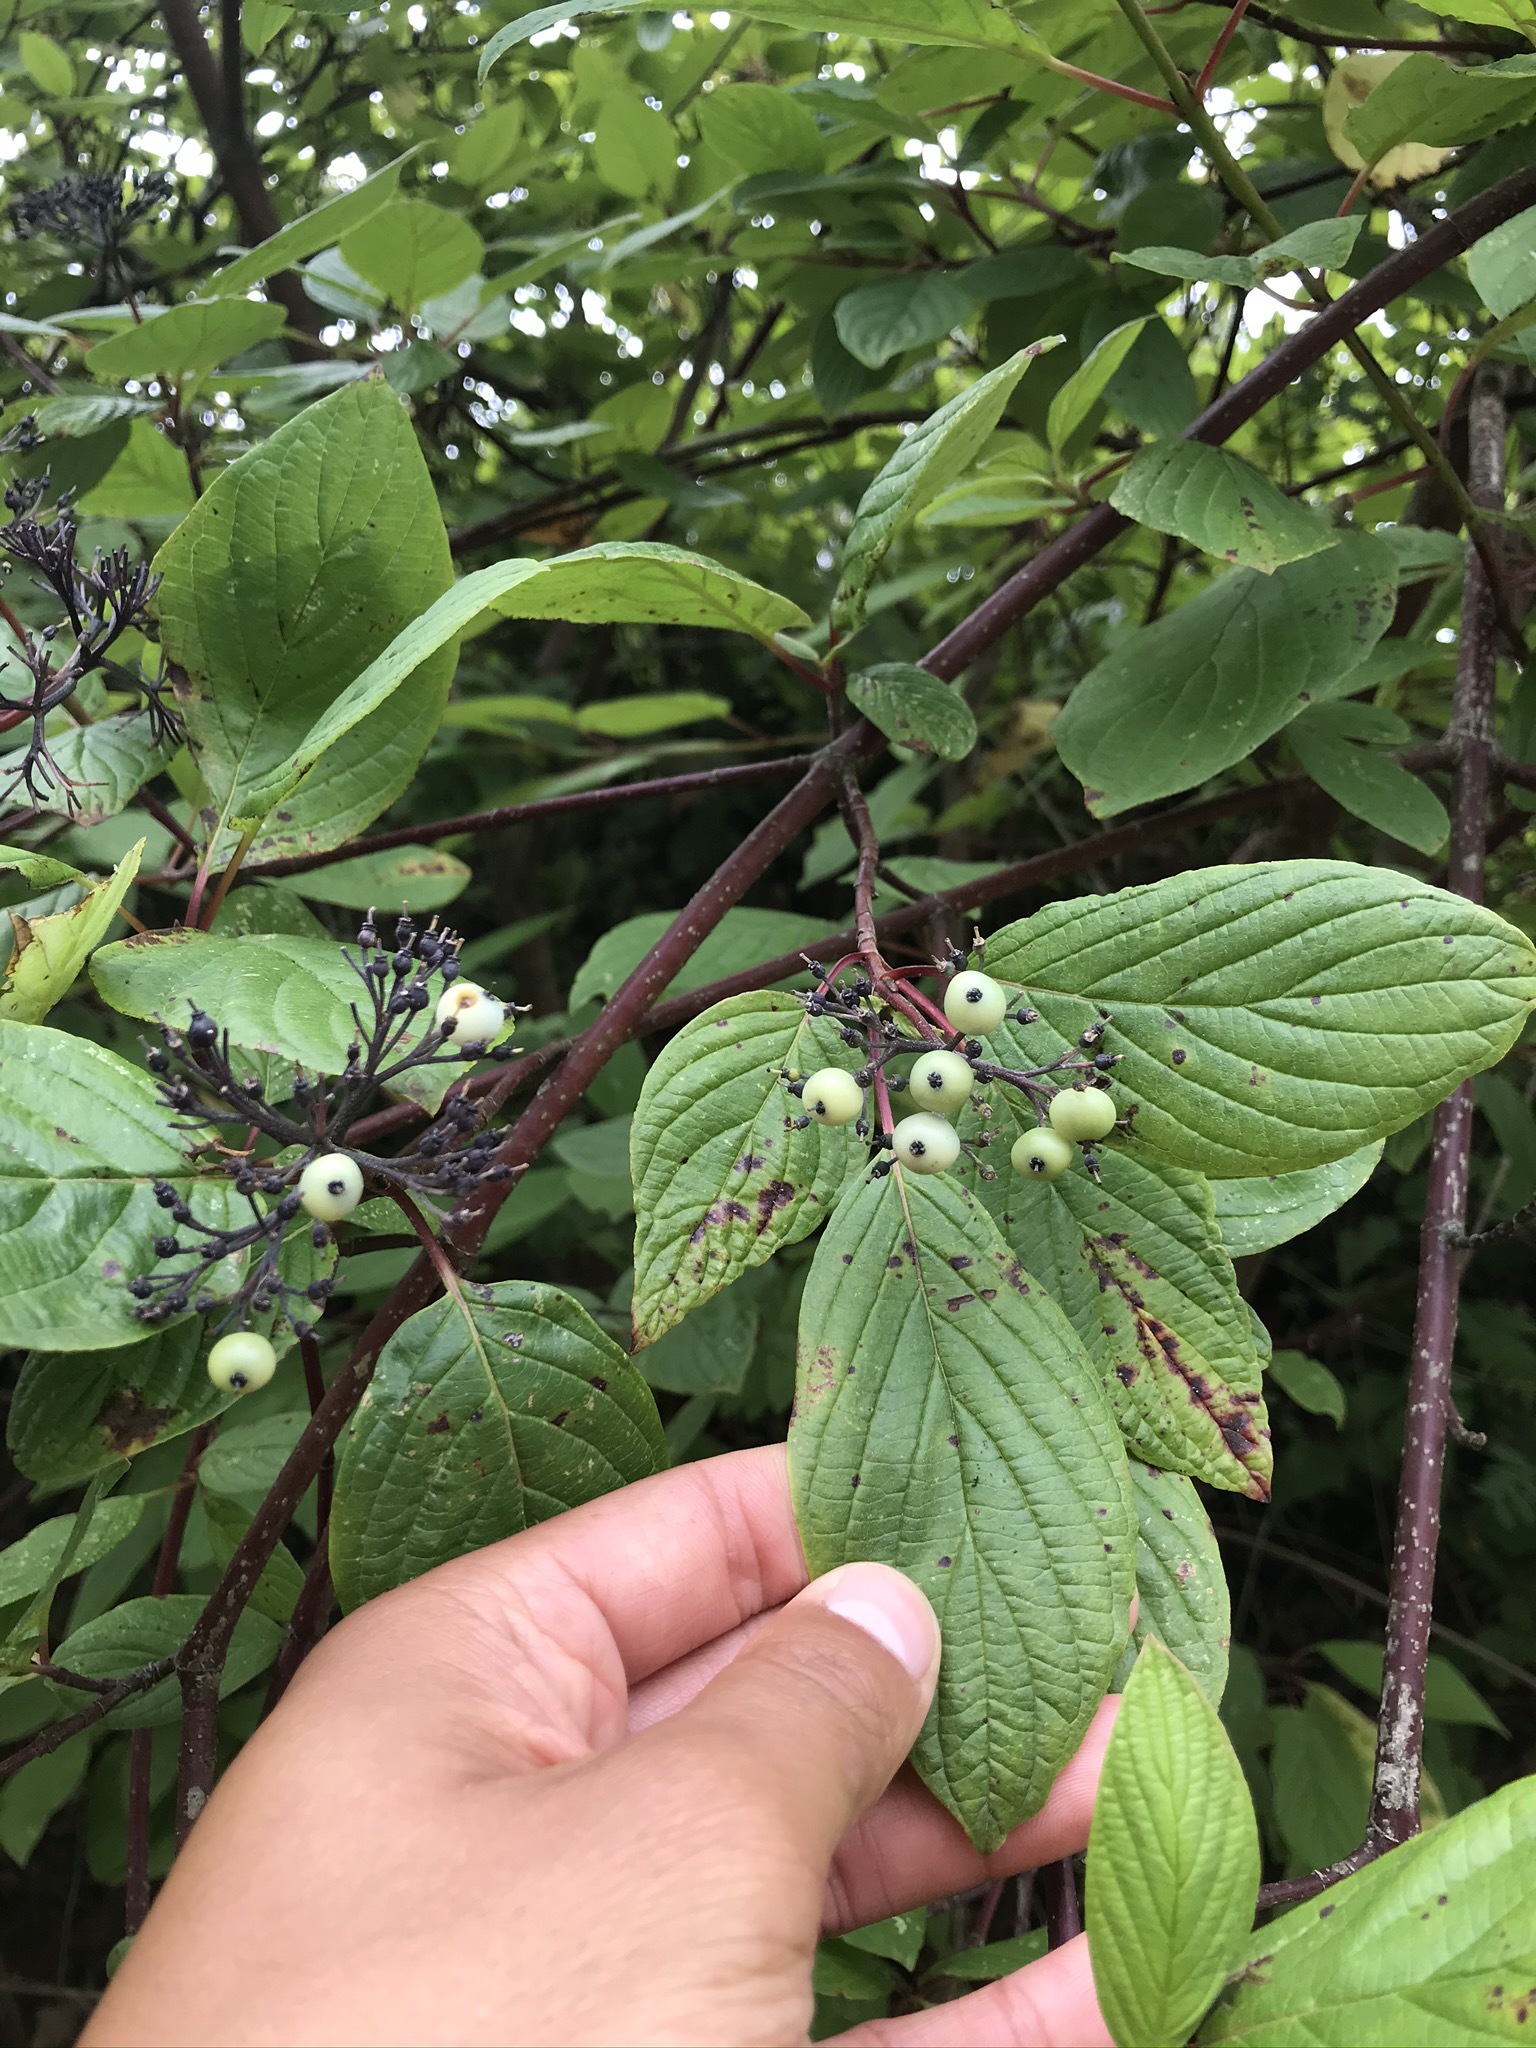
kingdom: Plantae
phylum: Tracheophyta
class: Magnoliopsida
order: Cornales
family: Cornaceae
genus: Cornus
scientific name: Cornus sericea
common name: Red-osier dogwood
